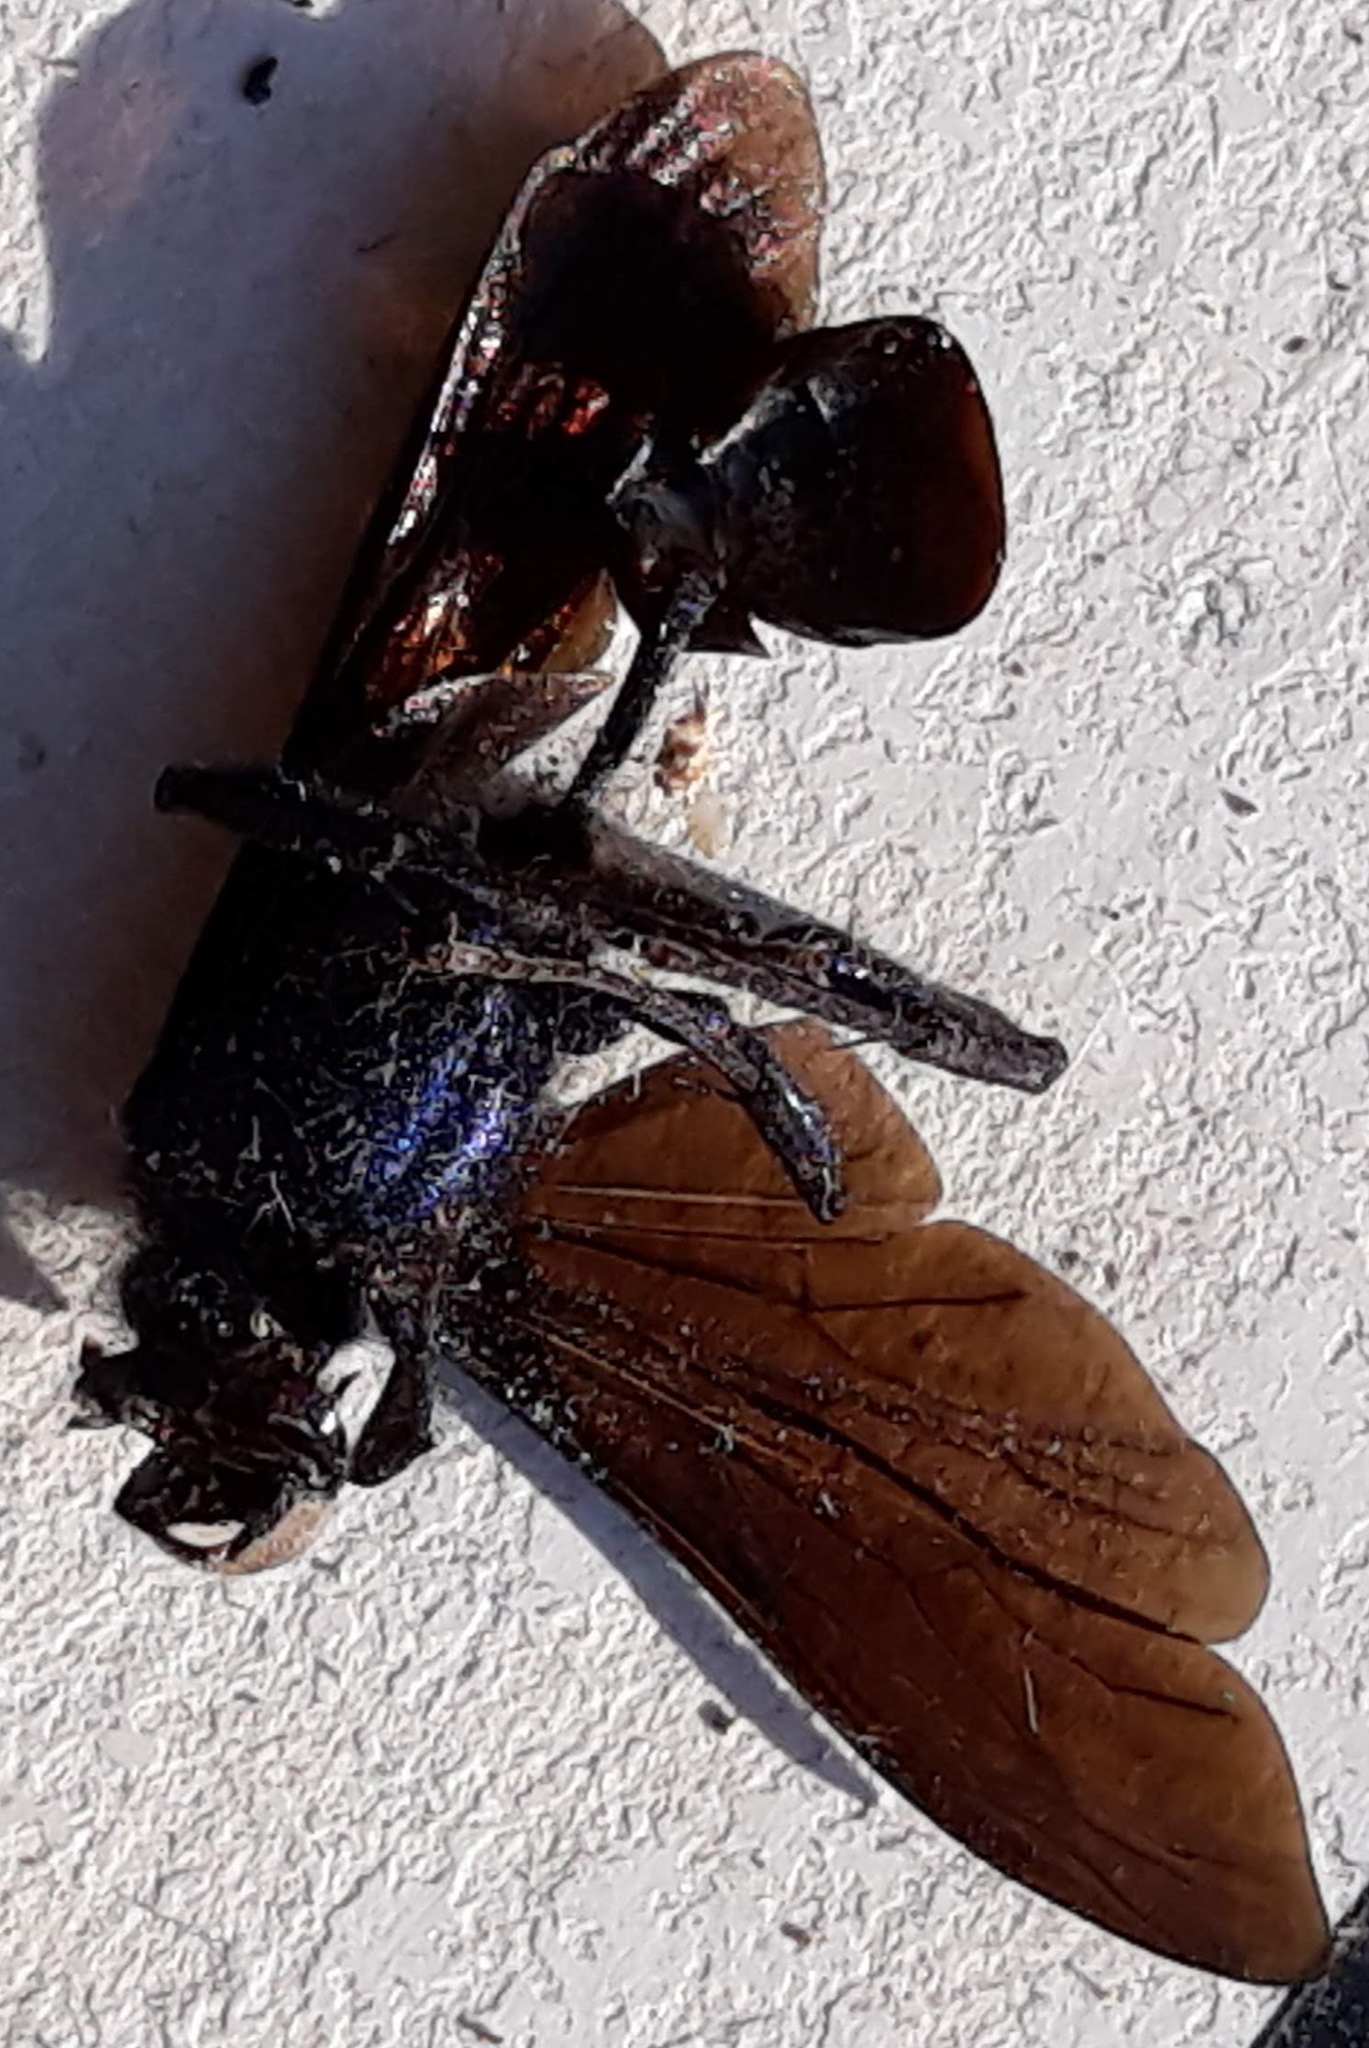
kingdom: Animalia
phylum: Arthropoda
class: Insecta
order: Hymenoptera
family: Sphecidae
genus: Chalybion
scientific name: Chalybion californicum
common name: Mud dauber
